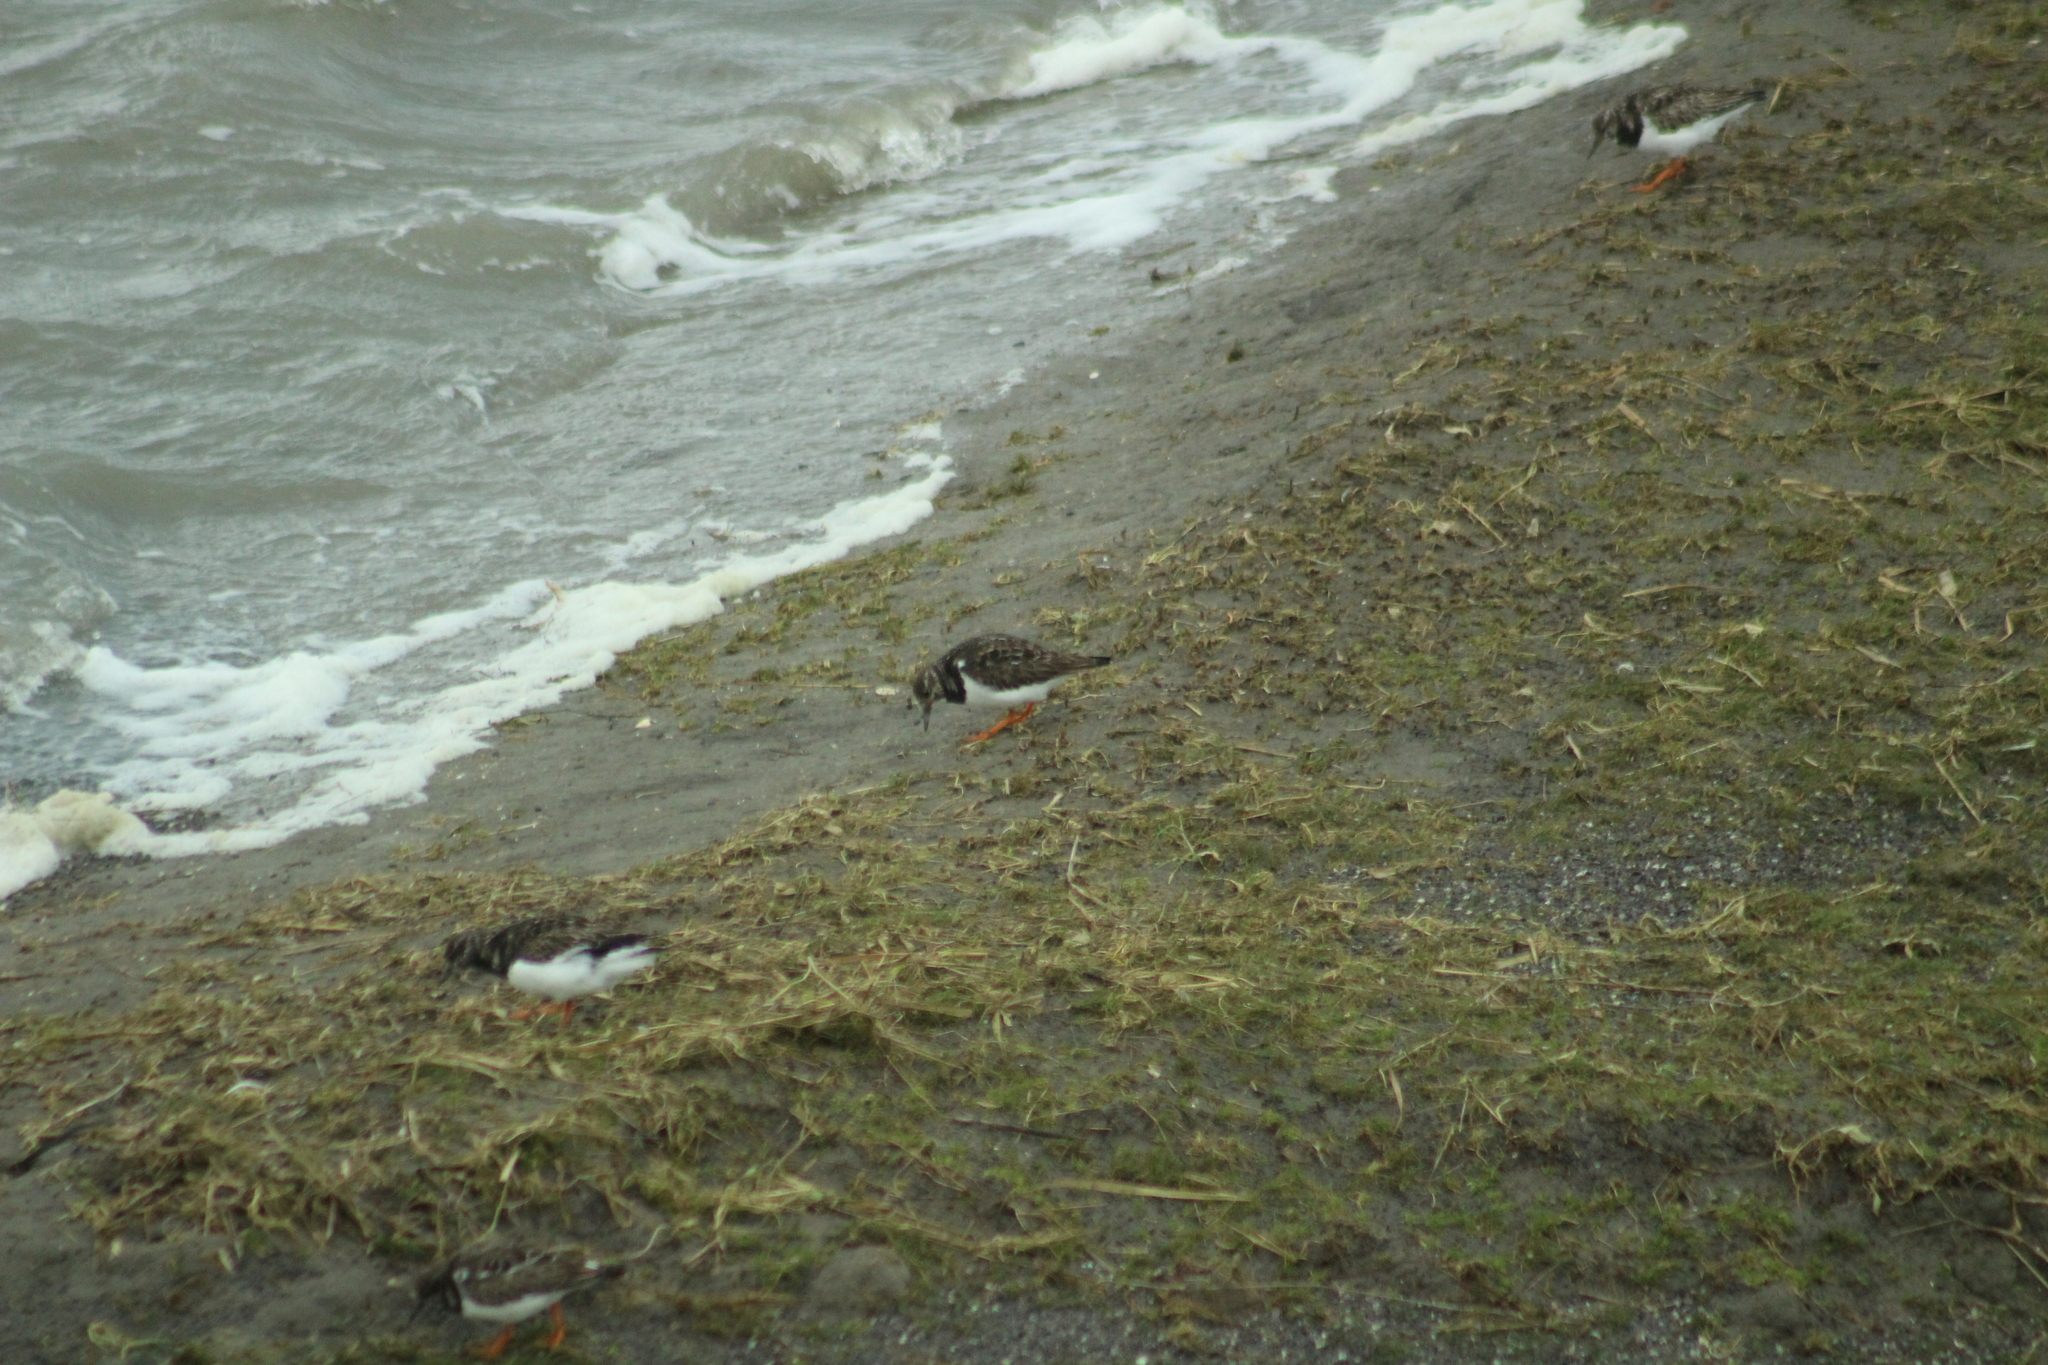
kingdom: Animalia
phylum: Chordata
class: Aves
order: Charadriiformes
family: Scolopacidae
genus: Arenaria
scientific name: Arenaria interpres
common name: Ruddy turnstone
